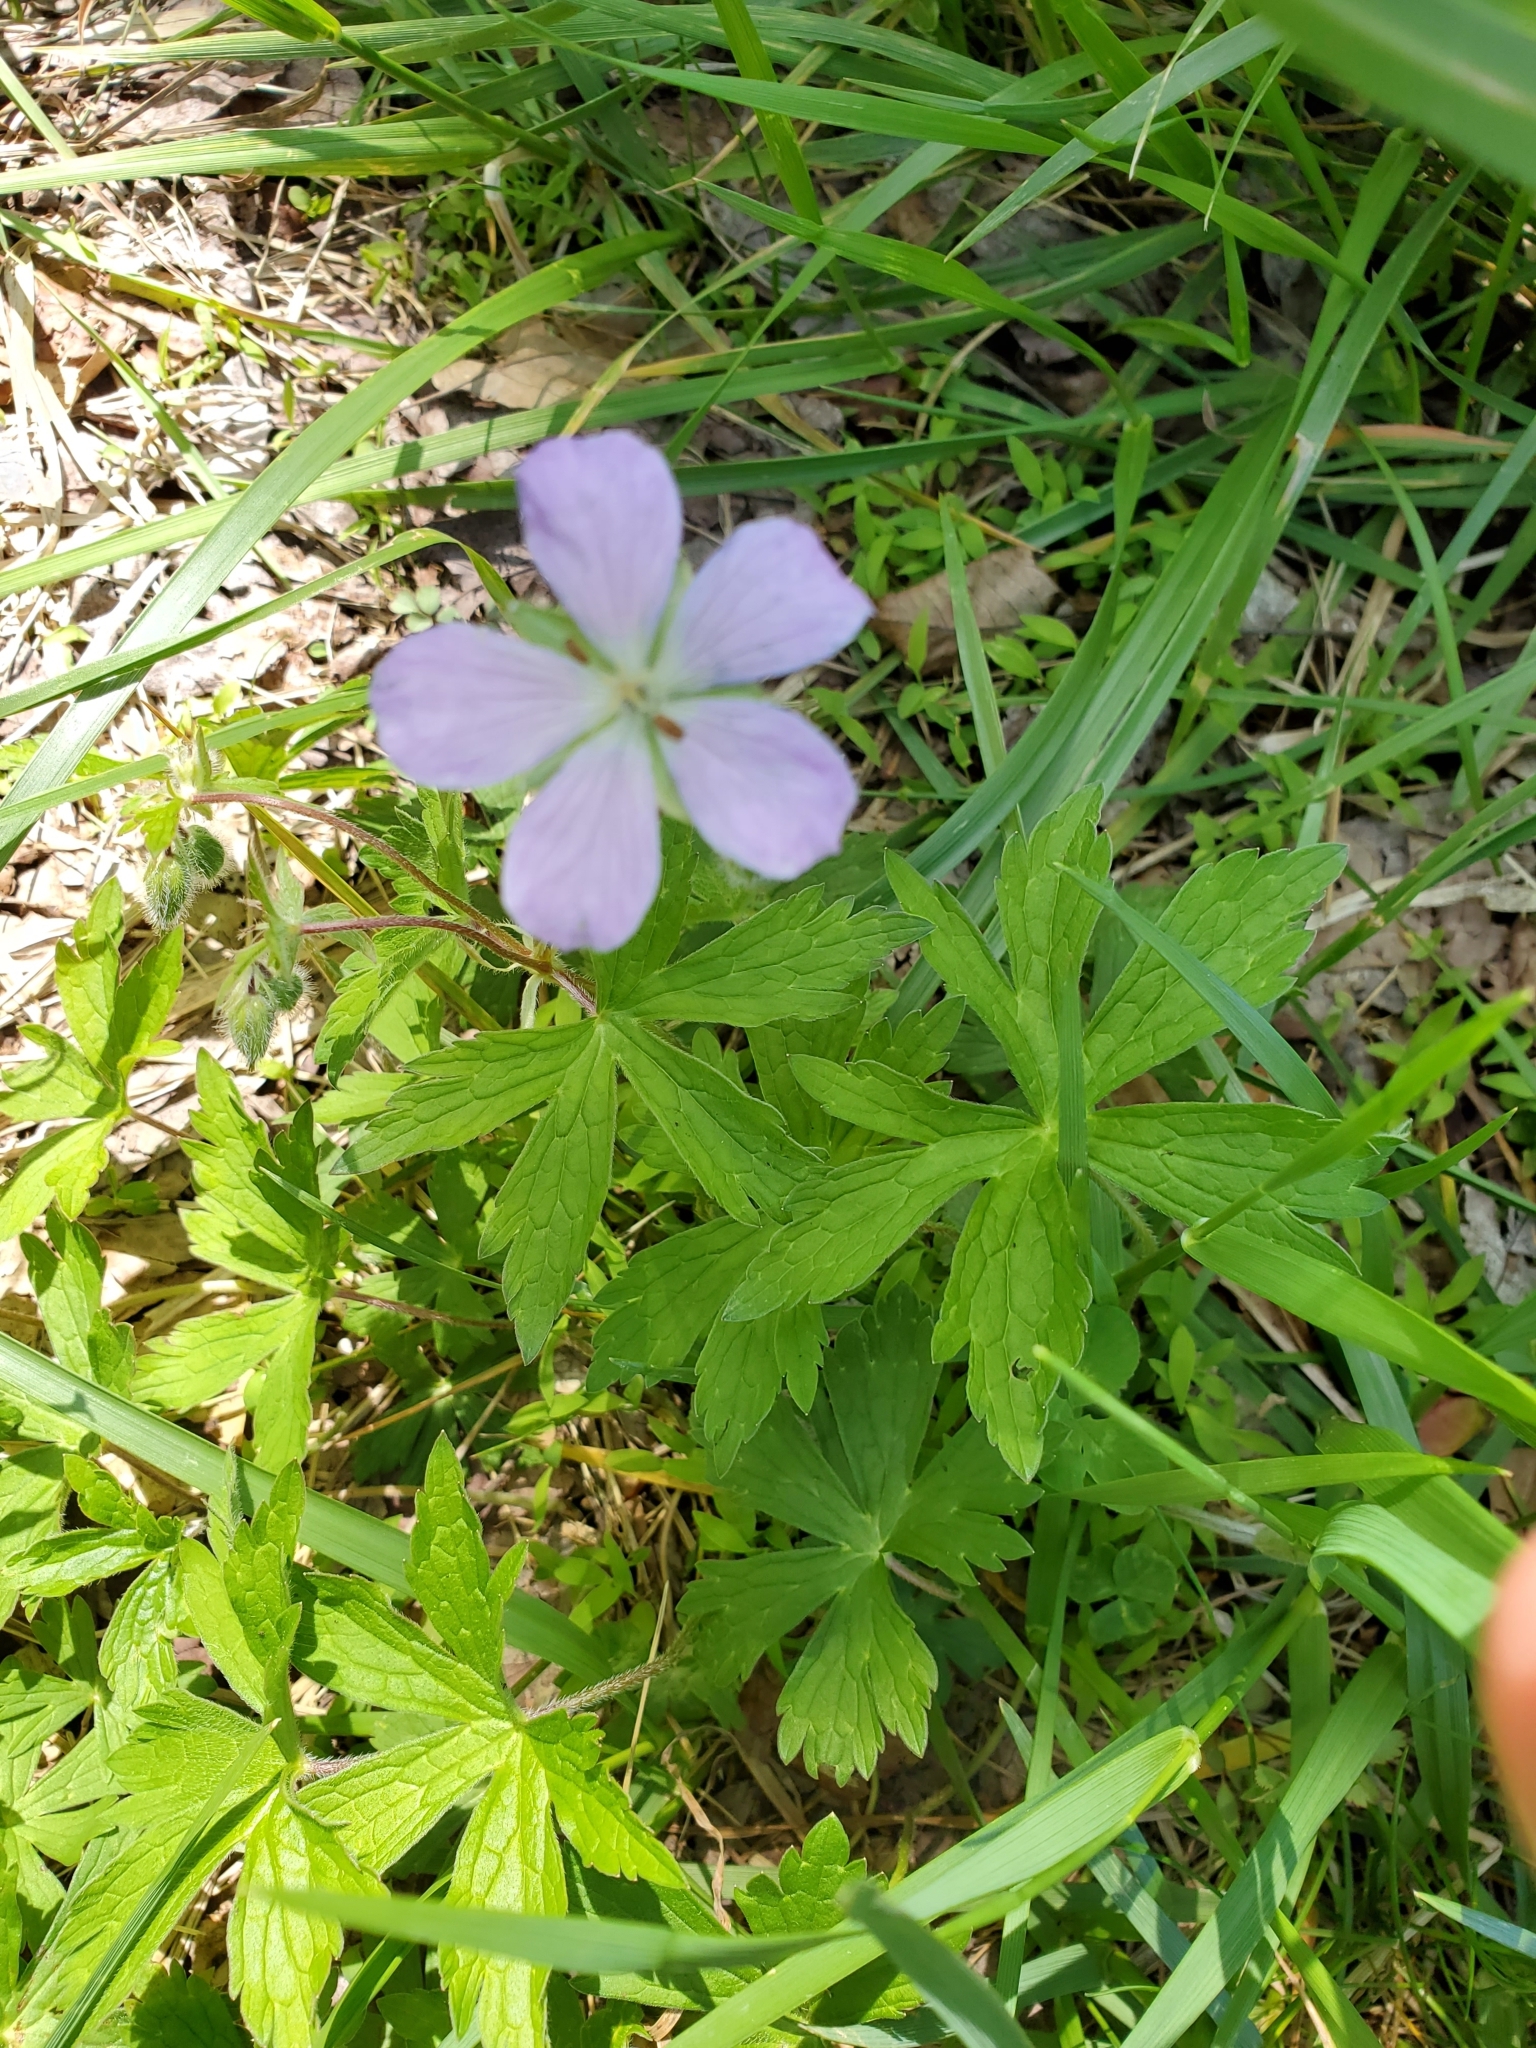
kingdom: Plantae
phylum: Tracheophyta
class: Magnoliopsida
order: Geraniales
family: Geraniaceae
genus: Geranium
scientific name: Geranium maculatum
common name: Spotted geranium
